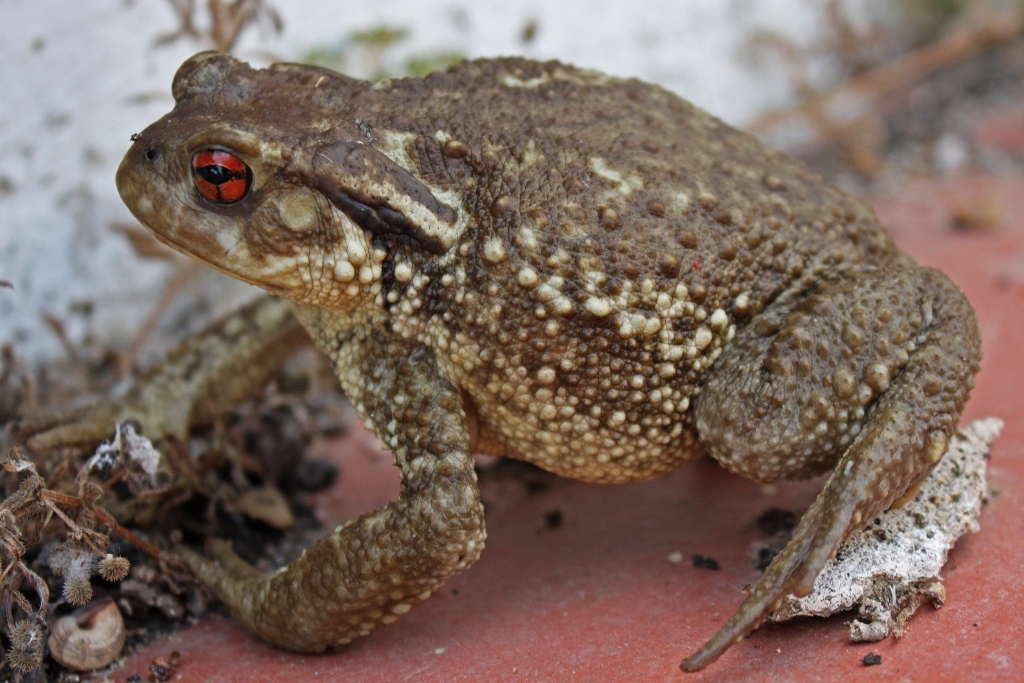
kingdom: Animalia
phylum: Chordata
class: Amphibia
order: Anura
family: Bufonidae
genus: Bufo
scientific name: Bufo spinosus
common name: Western common toad
